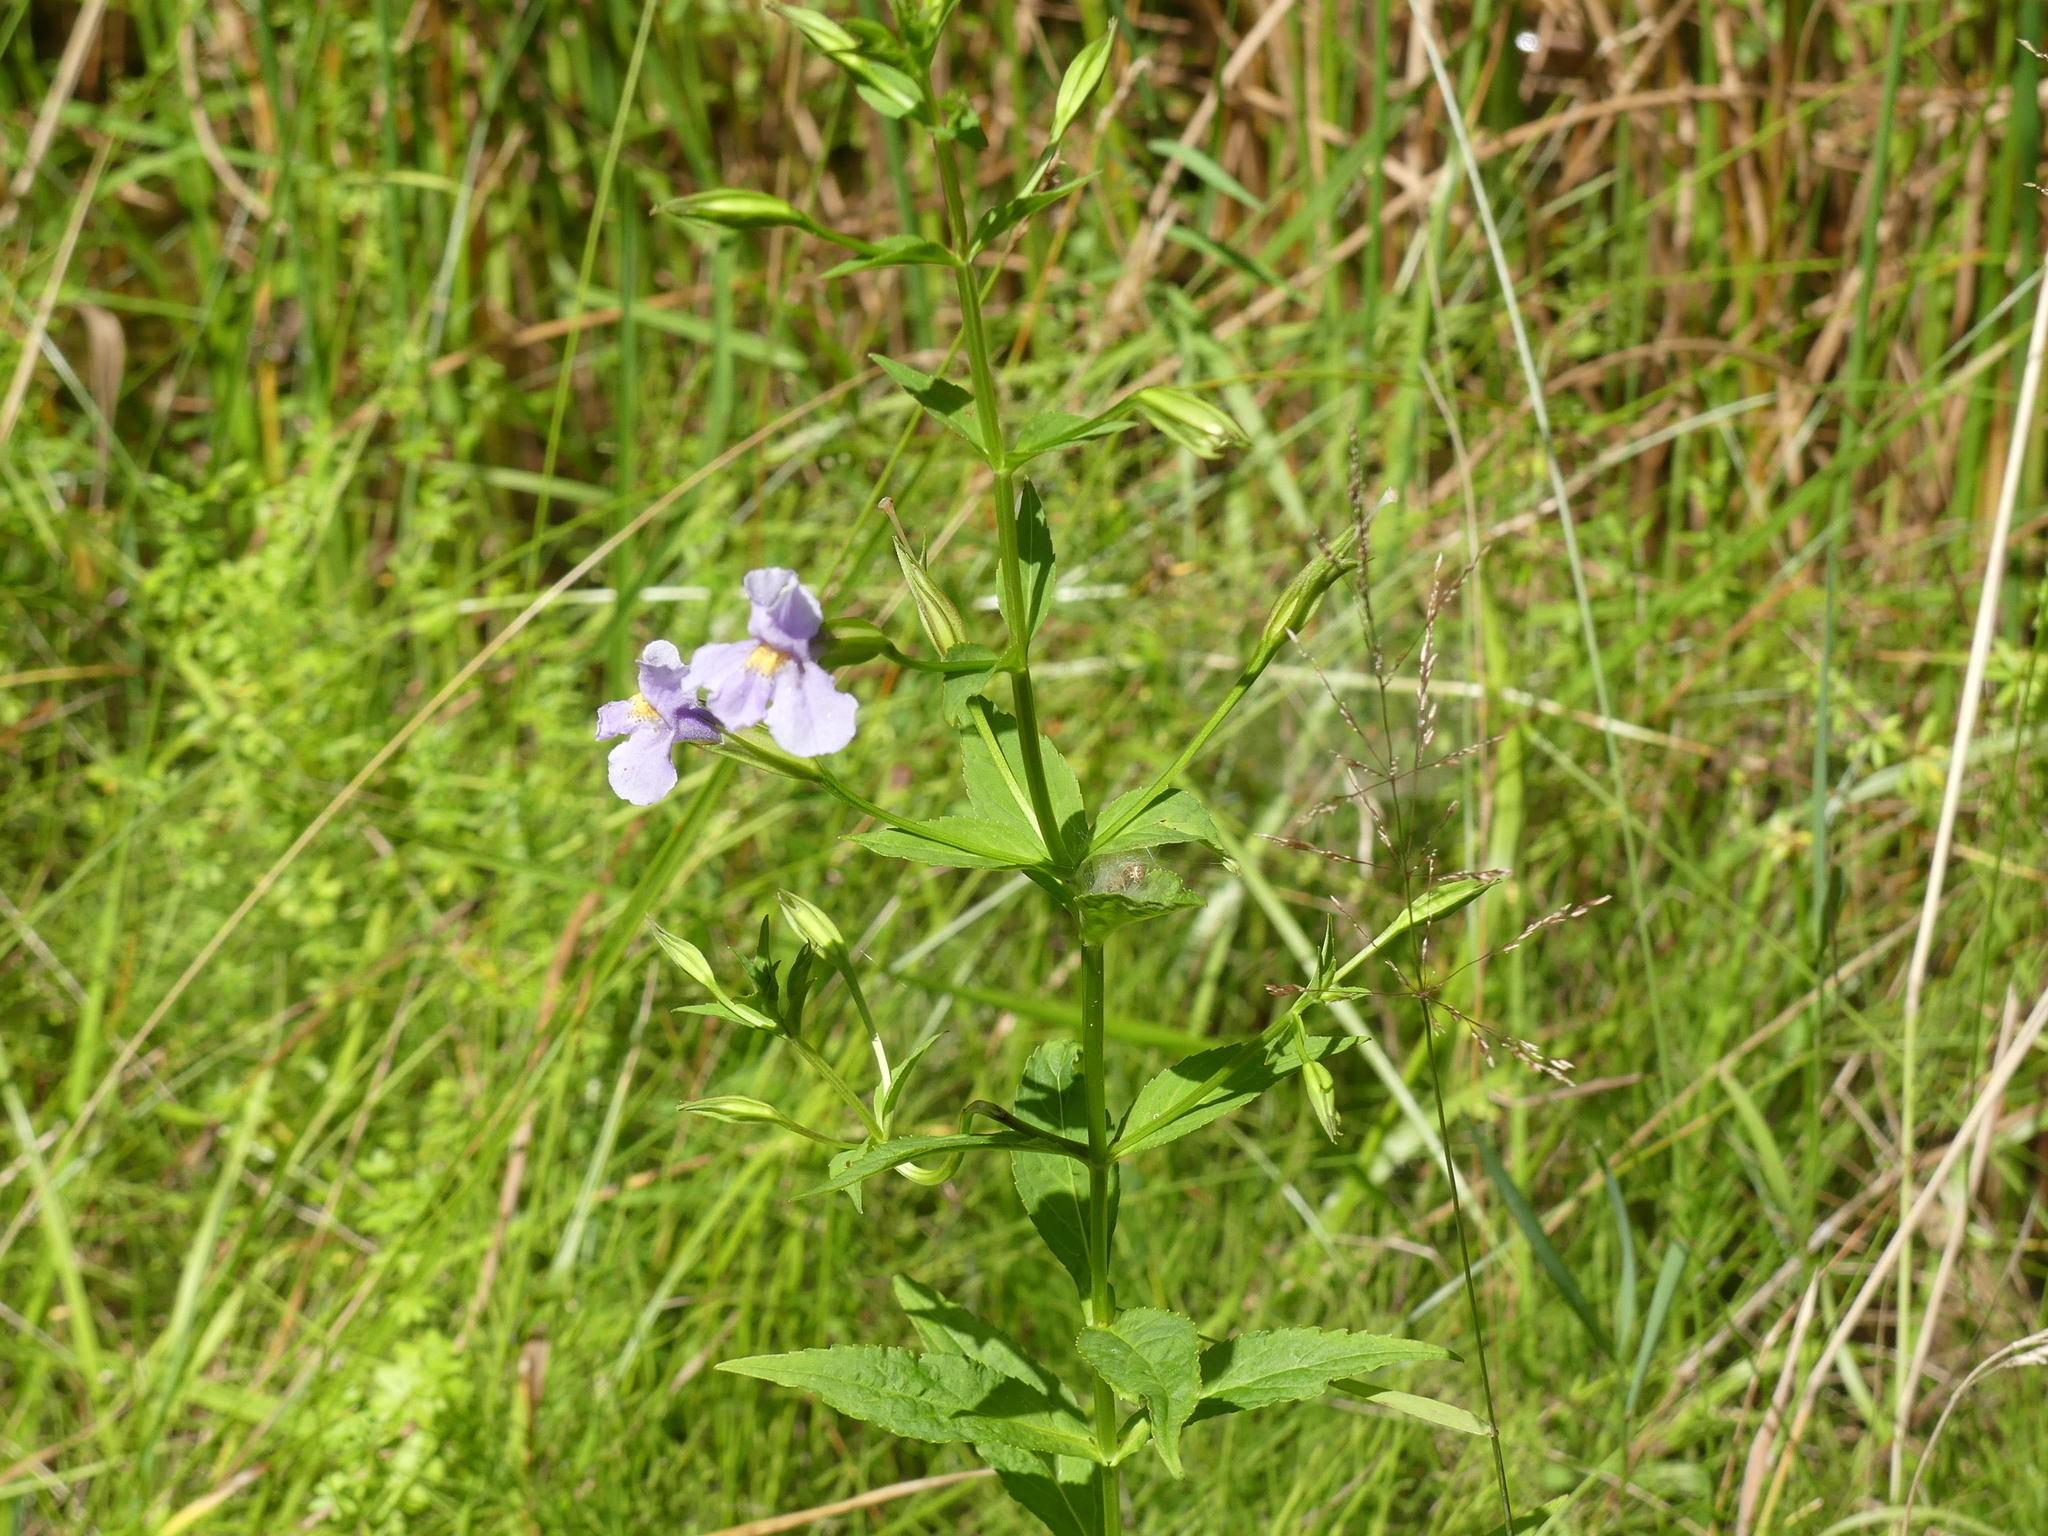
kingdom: Plantae
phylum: Tracheophyta
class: Magnoliopsida
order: Lamiales
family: Phrymaceae
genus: Mimulus
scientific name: Mimulus ringens
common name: Allegheny monkeyflower
